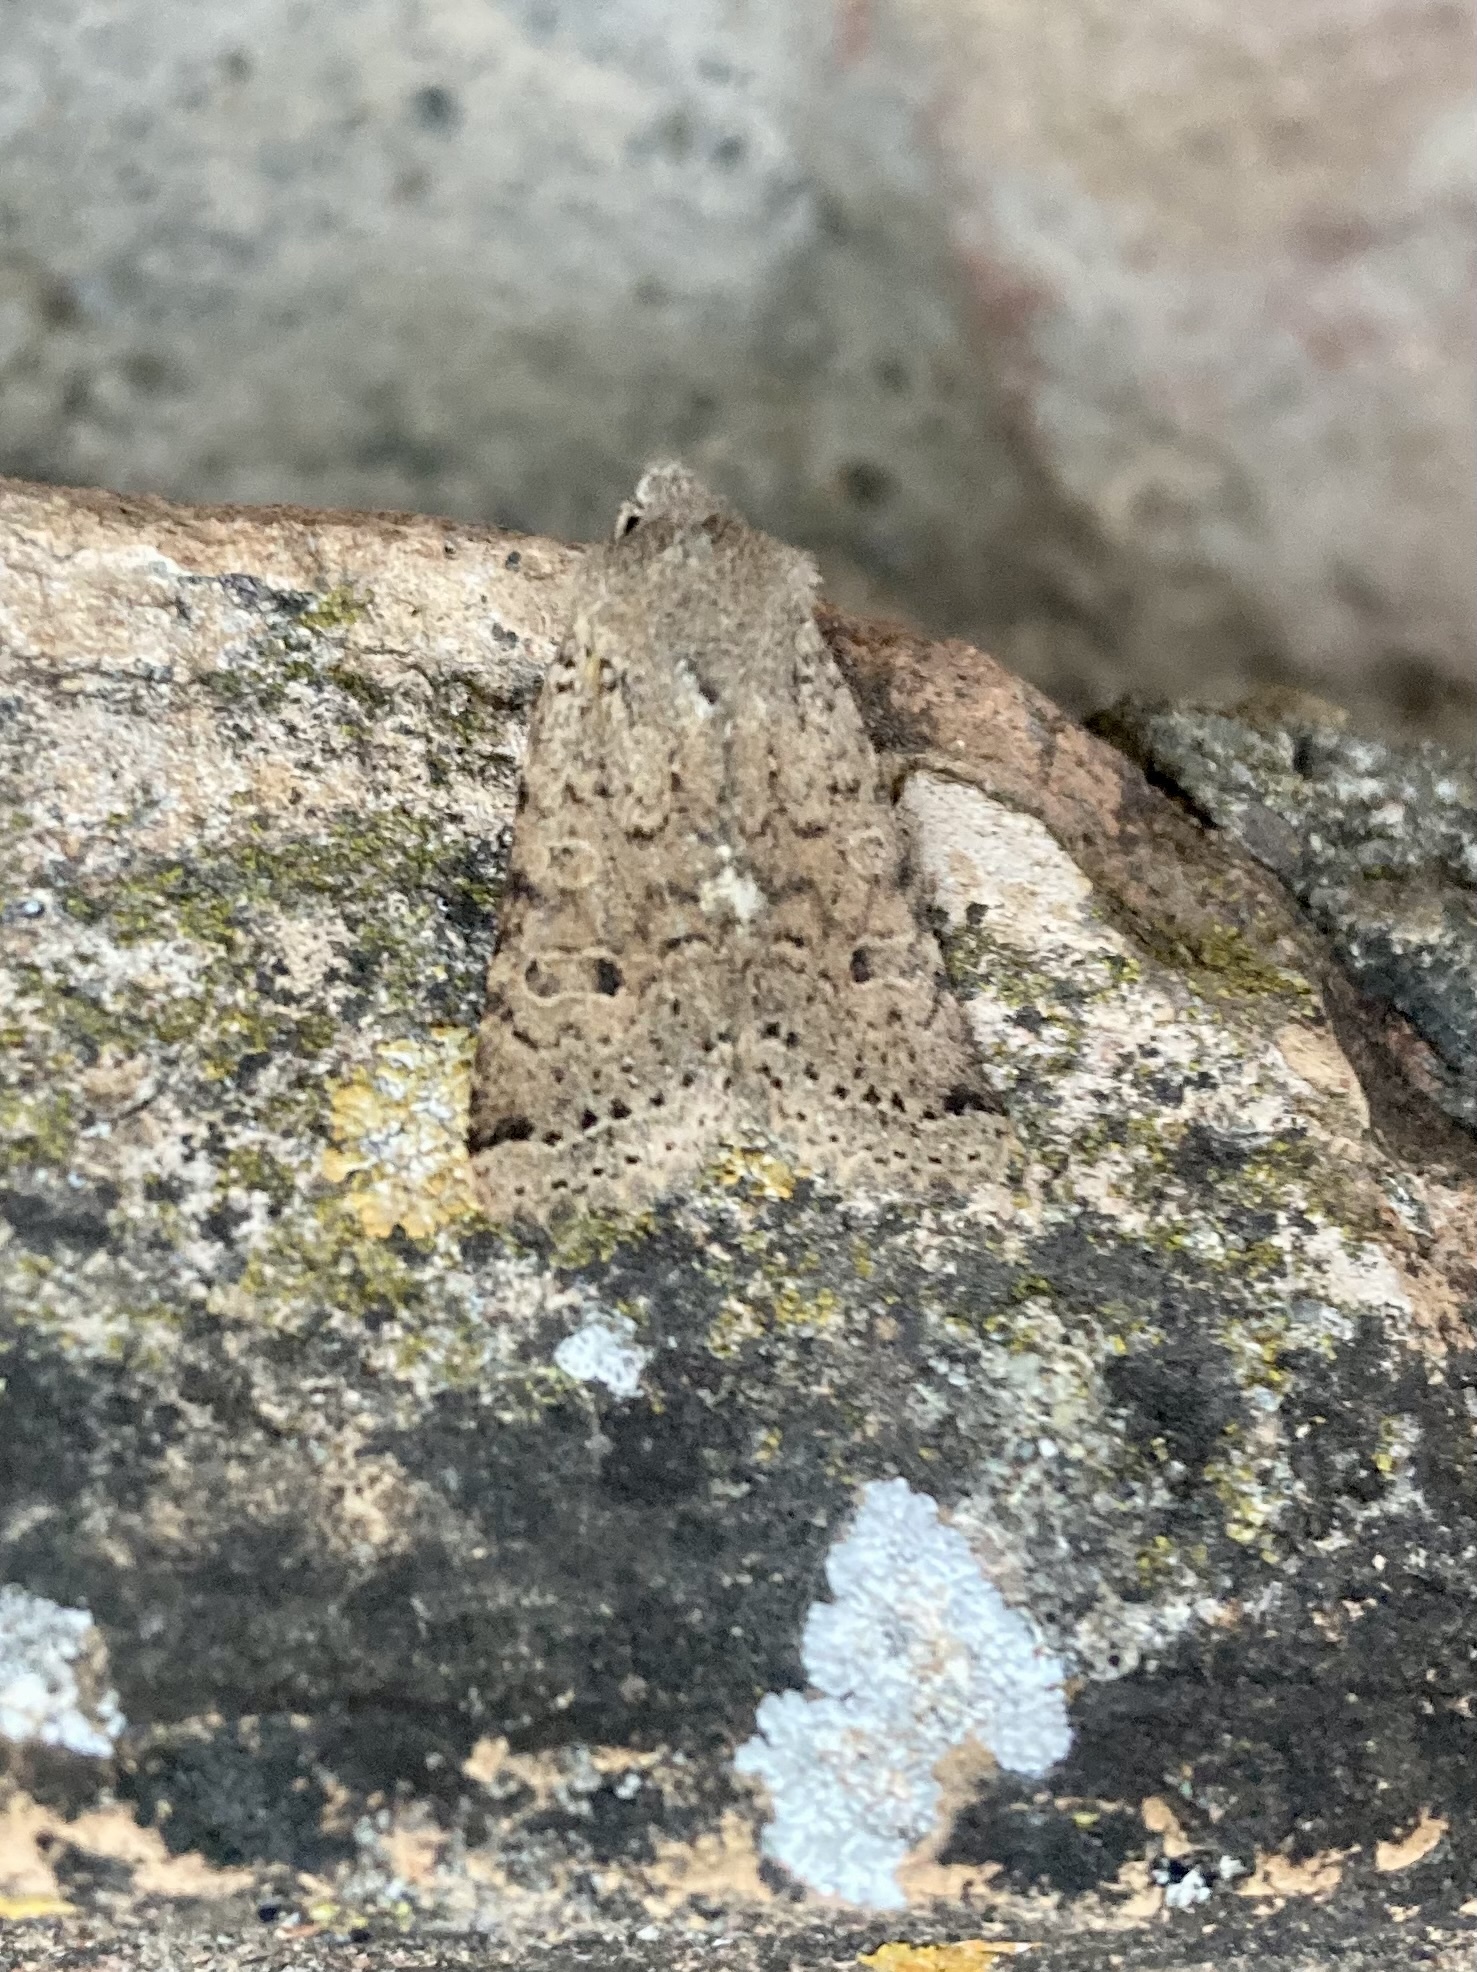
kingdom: Animalia
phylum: Arthropoda
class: Insecta
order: Lepidoptera
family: Noctuidae
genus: Agrochola
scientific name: Agrochola ruticilla
